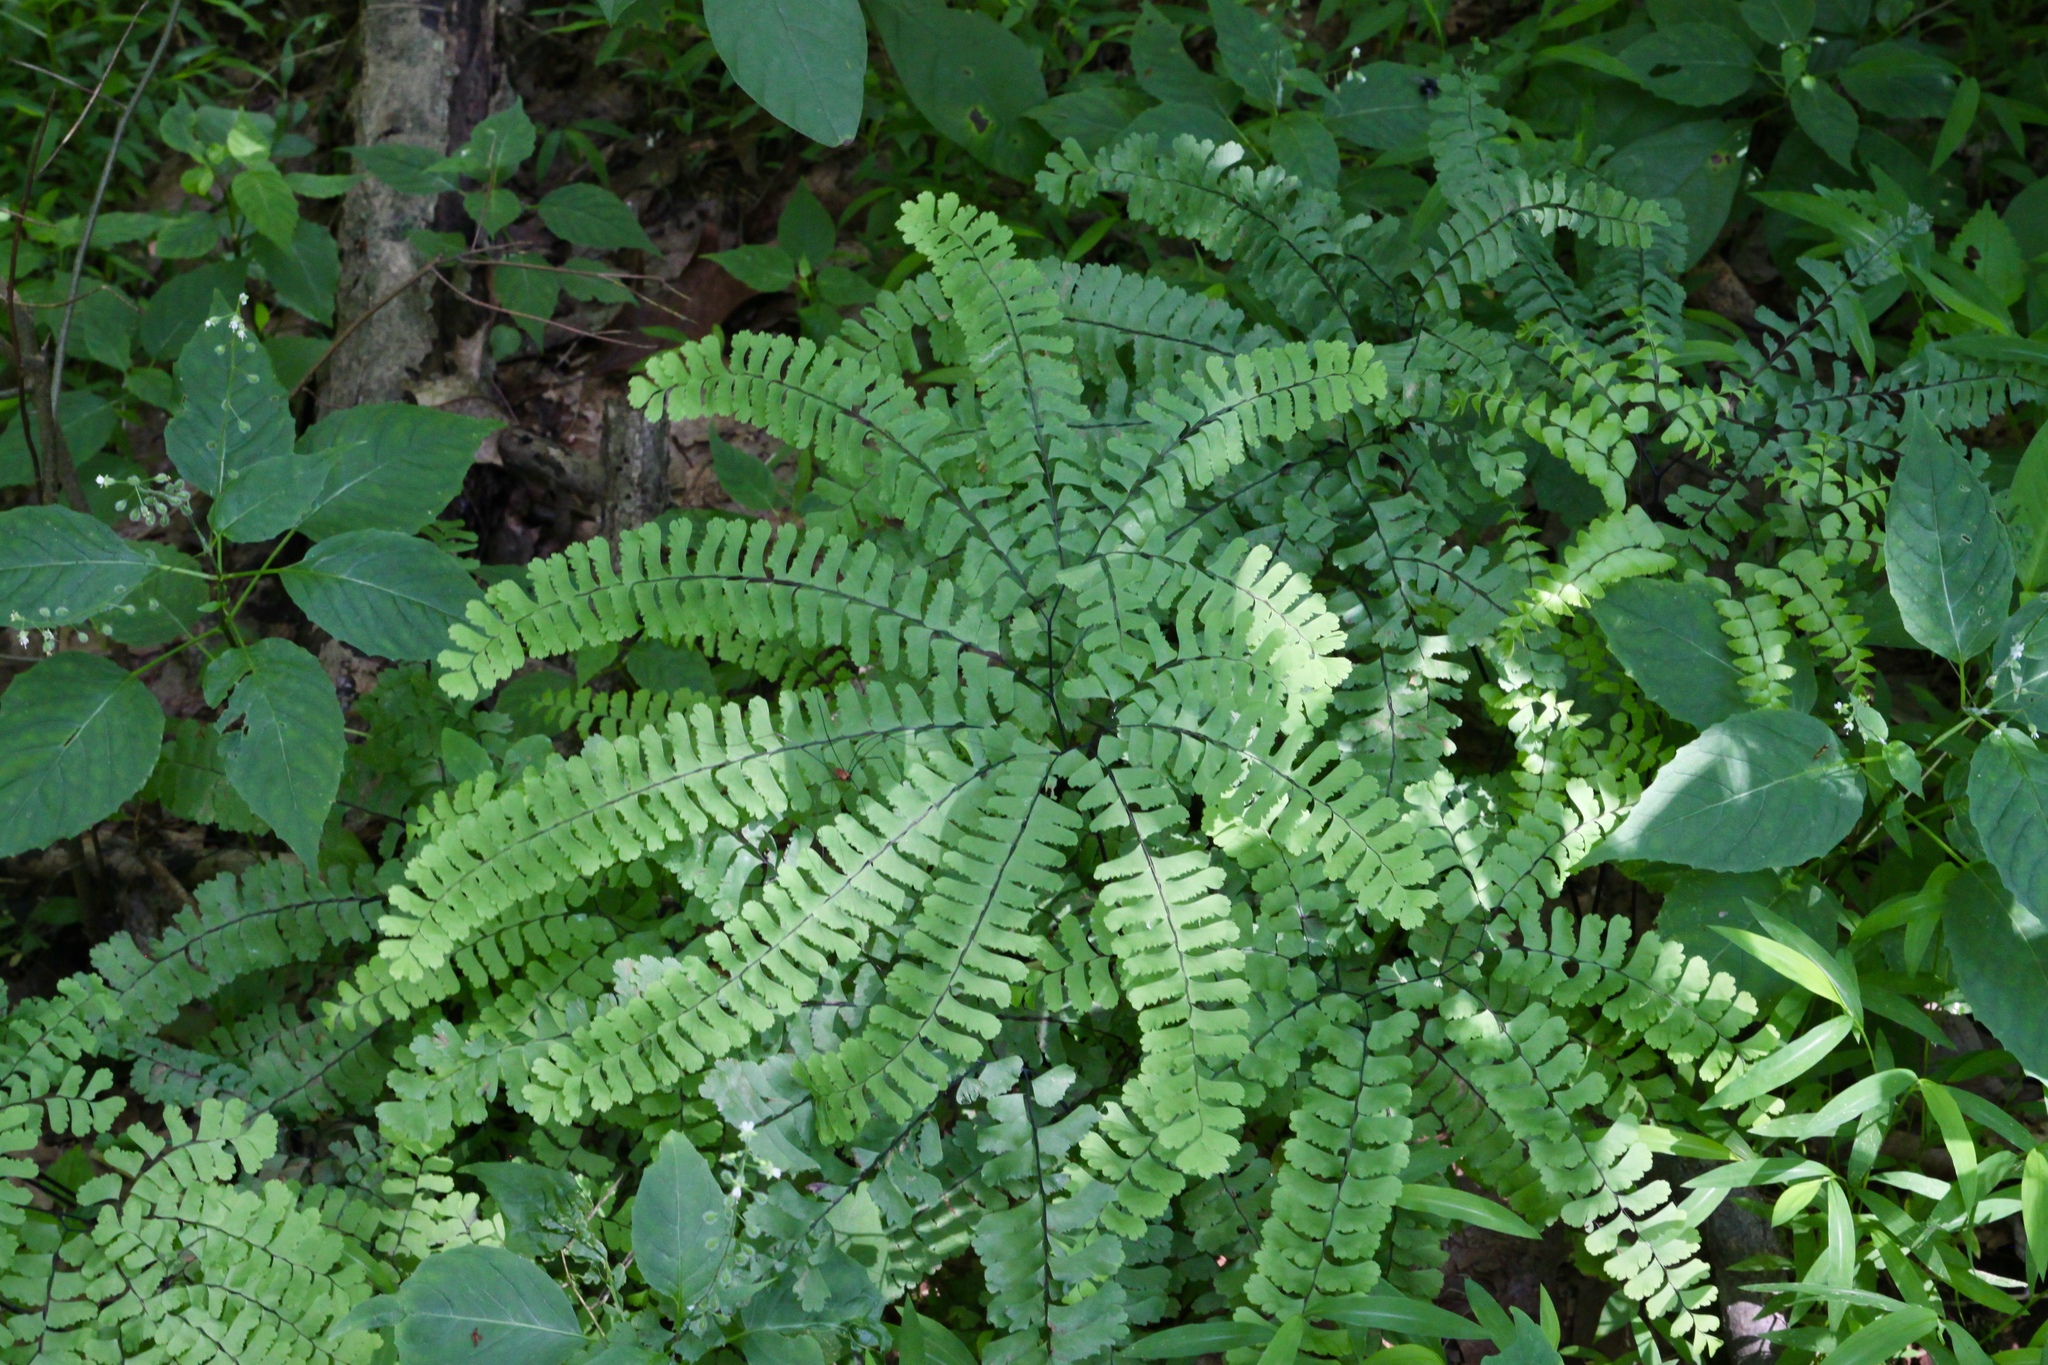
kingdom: Plantae
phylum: Tracheophyta
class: Polypodiopsida
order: Polypodiales
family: Pteridaceae
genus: Adiantum
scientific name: Adiantum pedatum
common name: Five-finger fern
